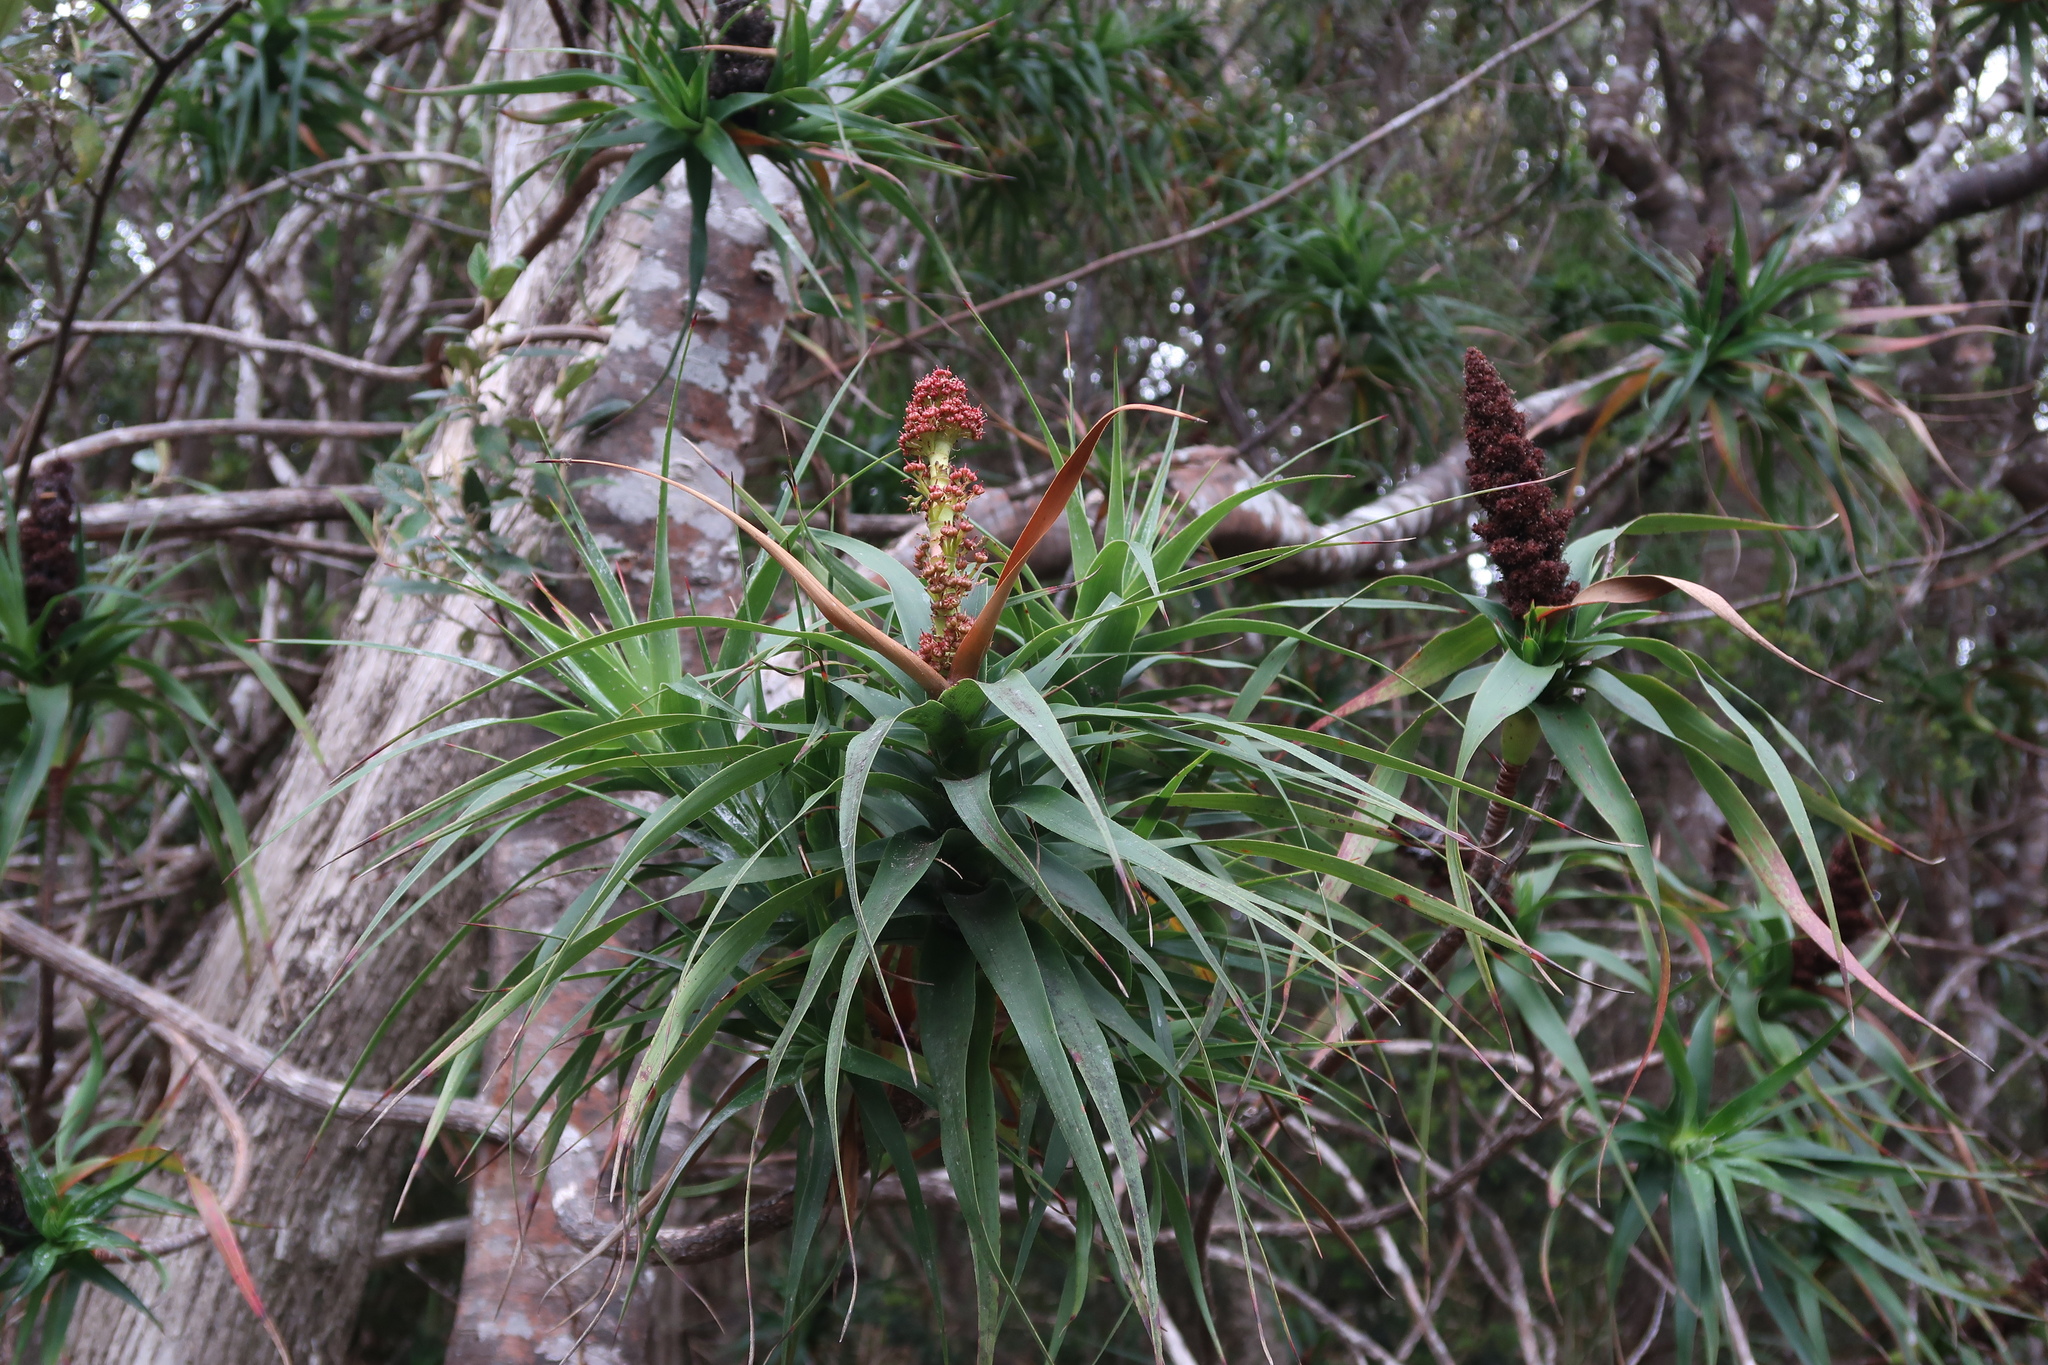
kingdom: Plantae
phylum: Tracheophyta
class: Magnoliopsida
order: Ericales
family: Ericaceae
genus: Dracophyllum
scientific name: Dracophyllum desgrazii
